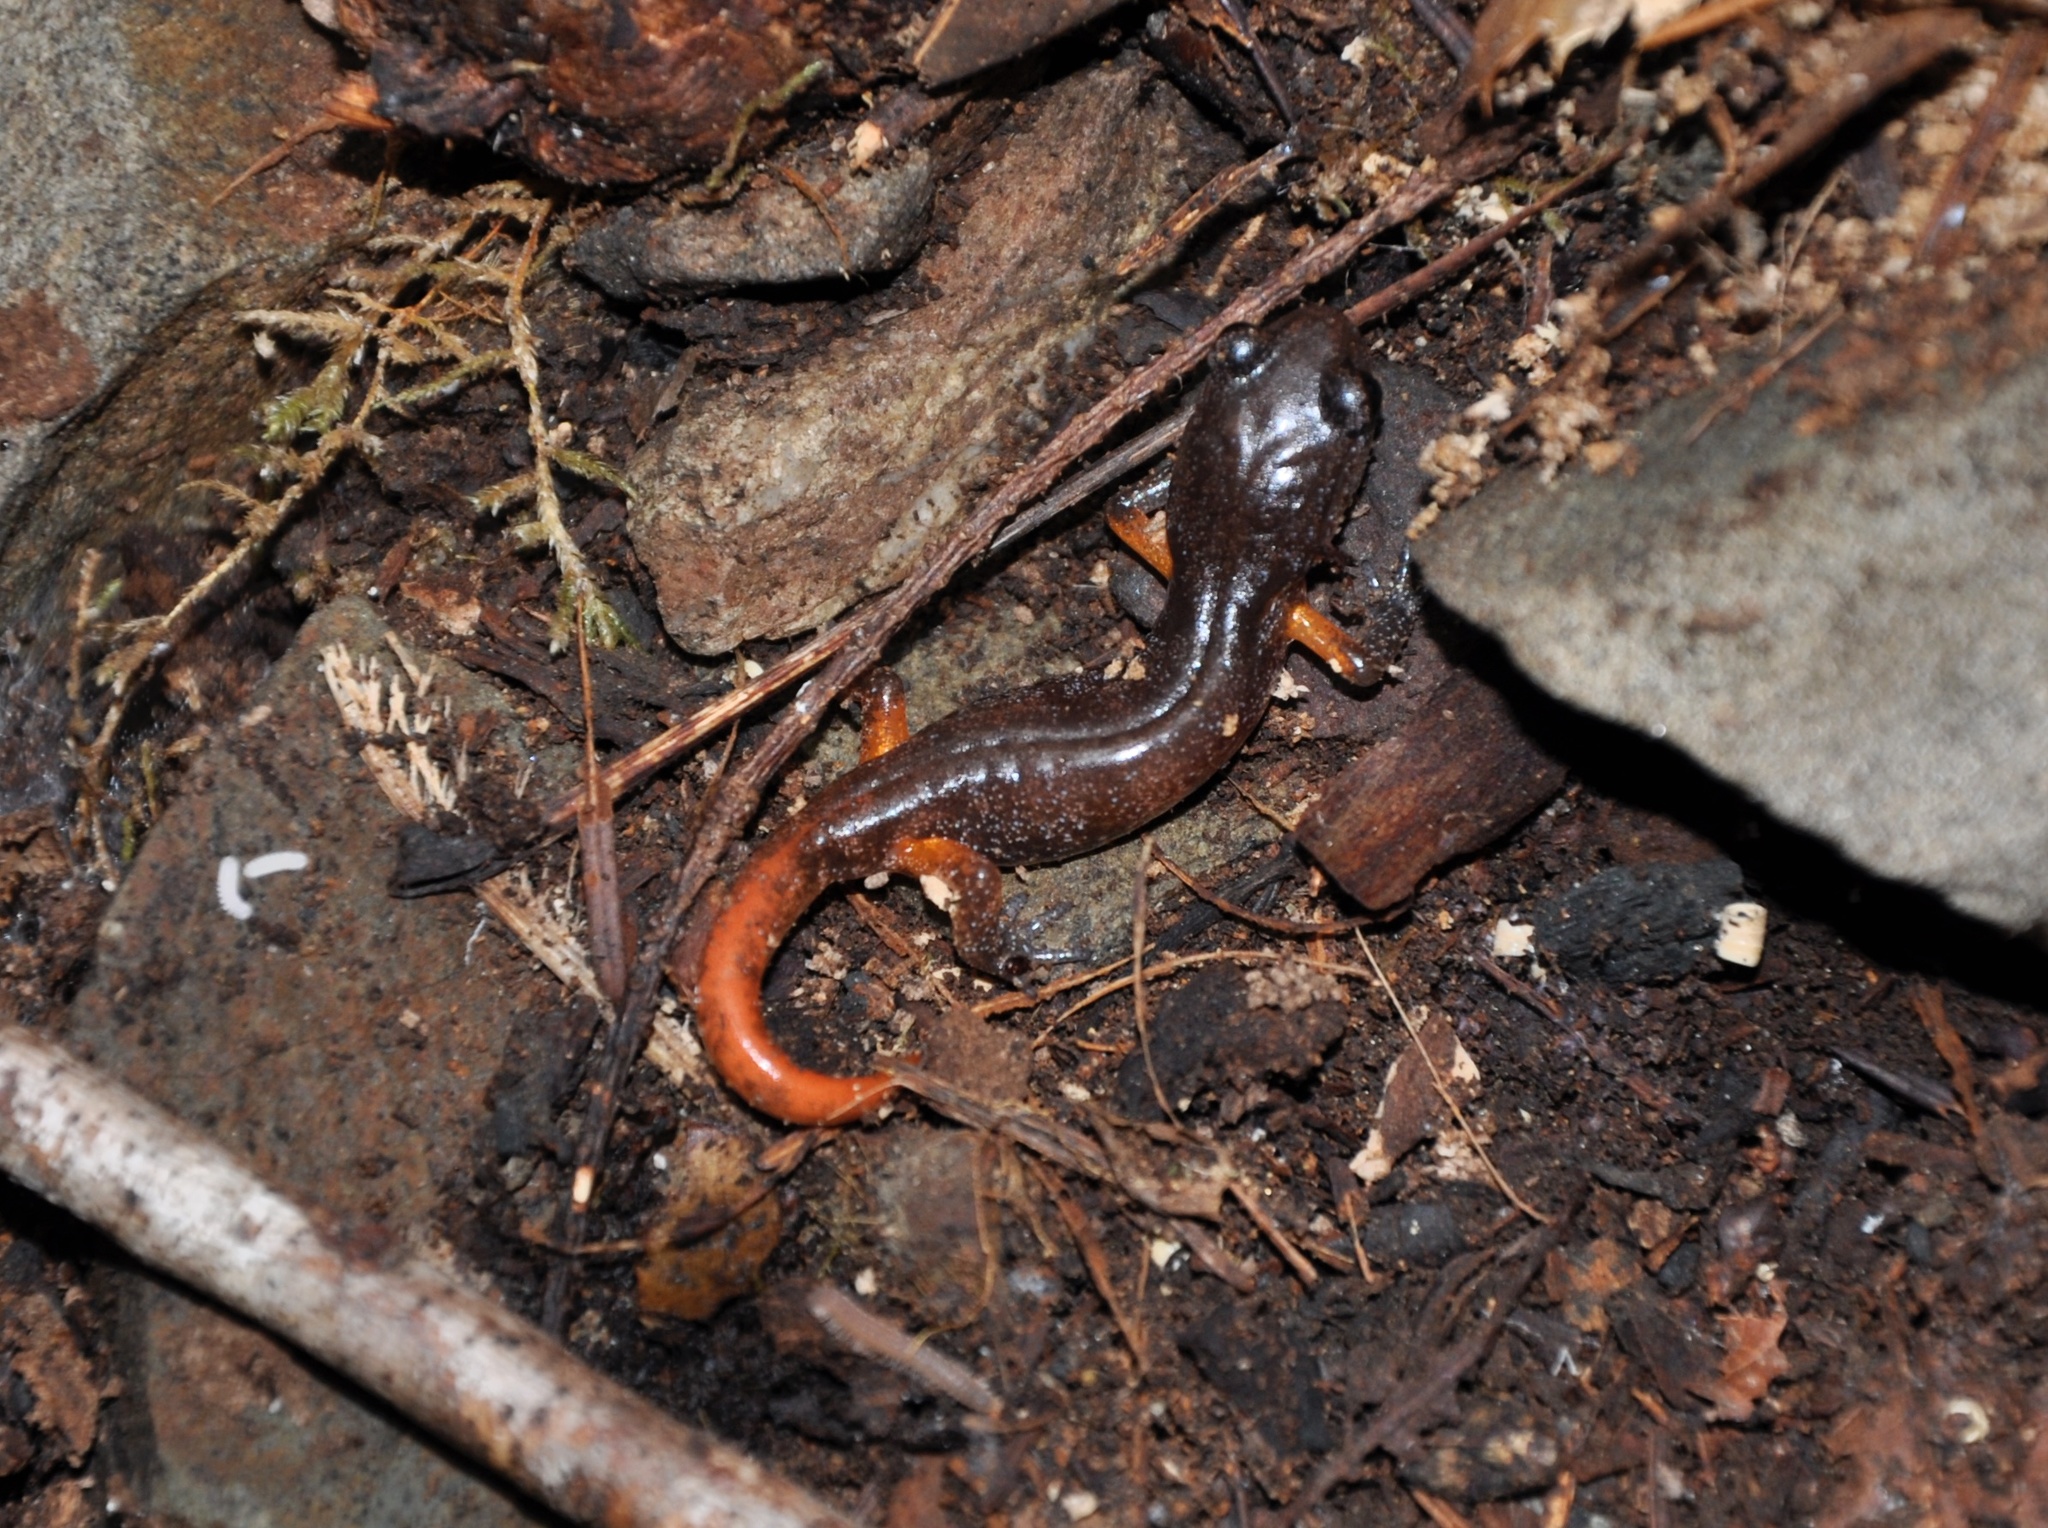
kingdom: Animalia
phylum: Chordata
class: Amphibia
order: Caudata
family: Plethodontidae
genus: Ensatina
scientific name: Ensatina eschscholtzii
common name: Ensatina
